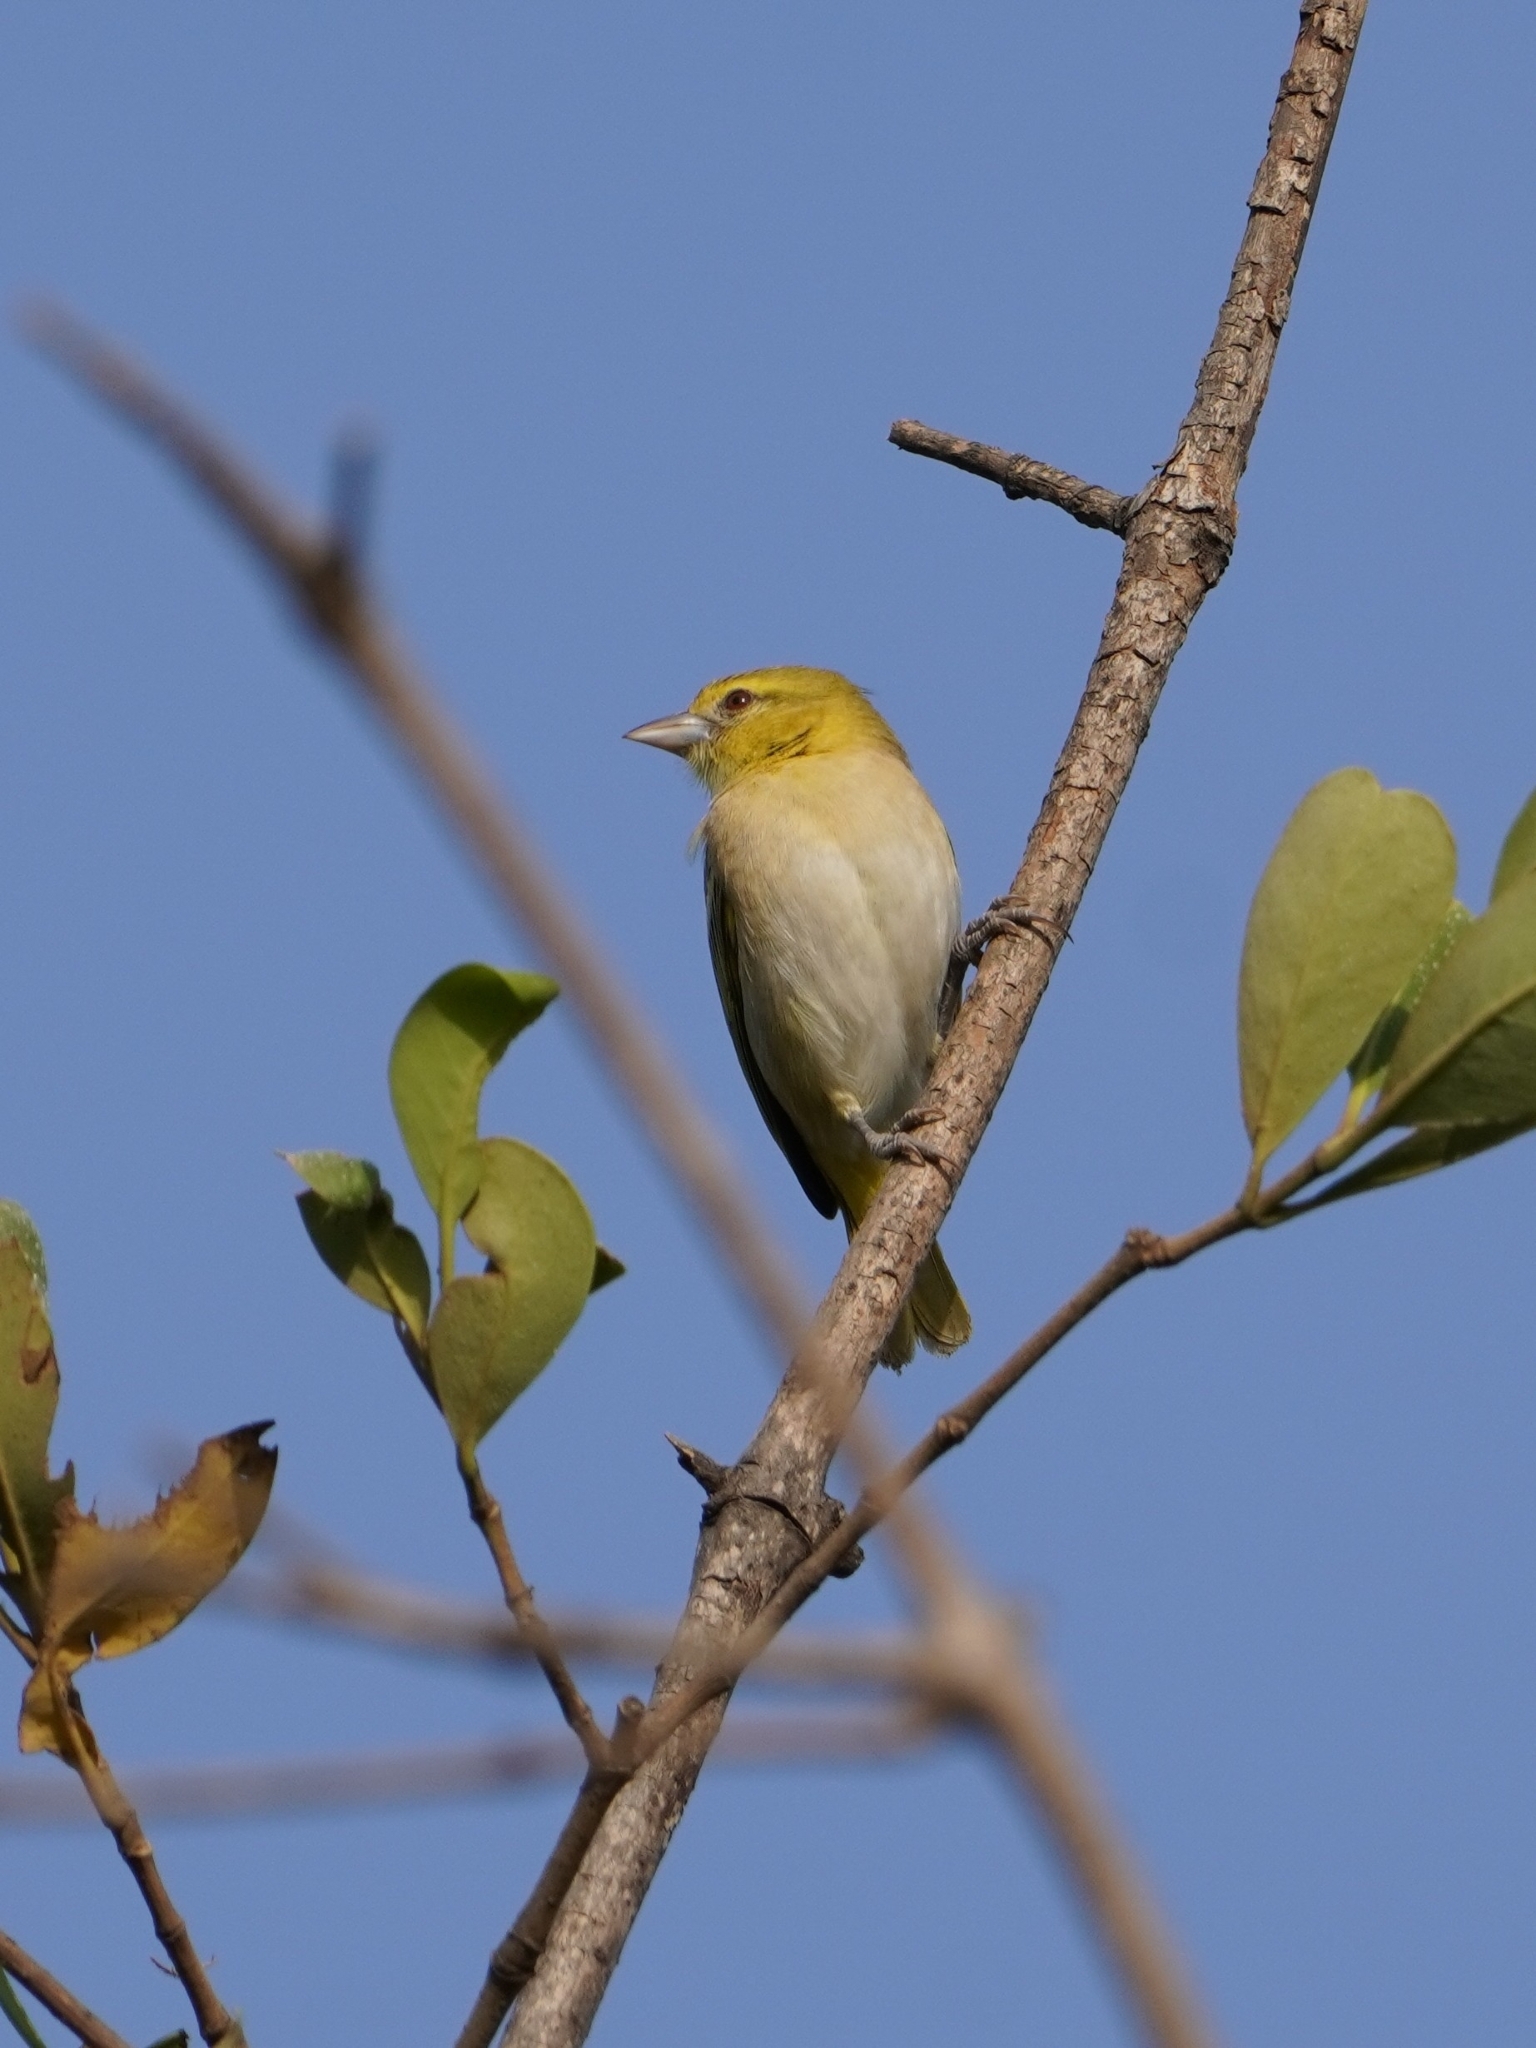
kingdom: Animalia
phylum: Chordata
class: Aves
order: Passeriformes
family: Ploceidae
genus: Ploceus
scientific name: Ploceus luteolus
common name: Little weaver
